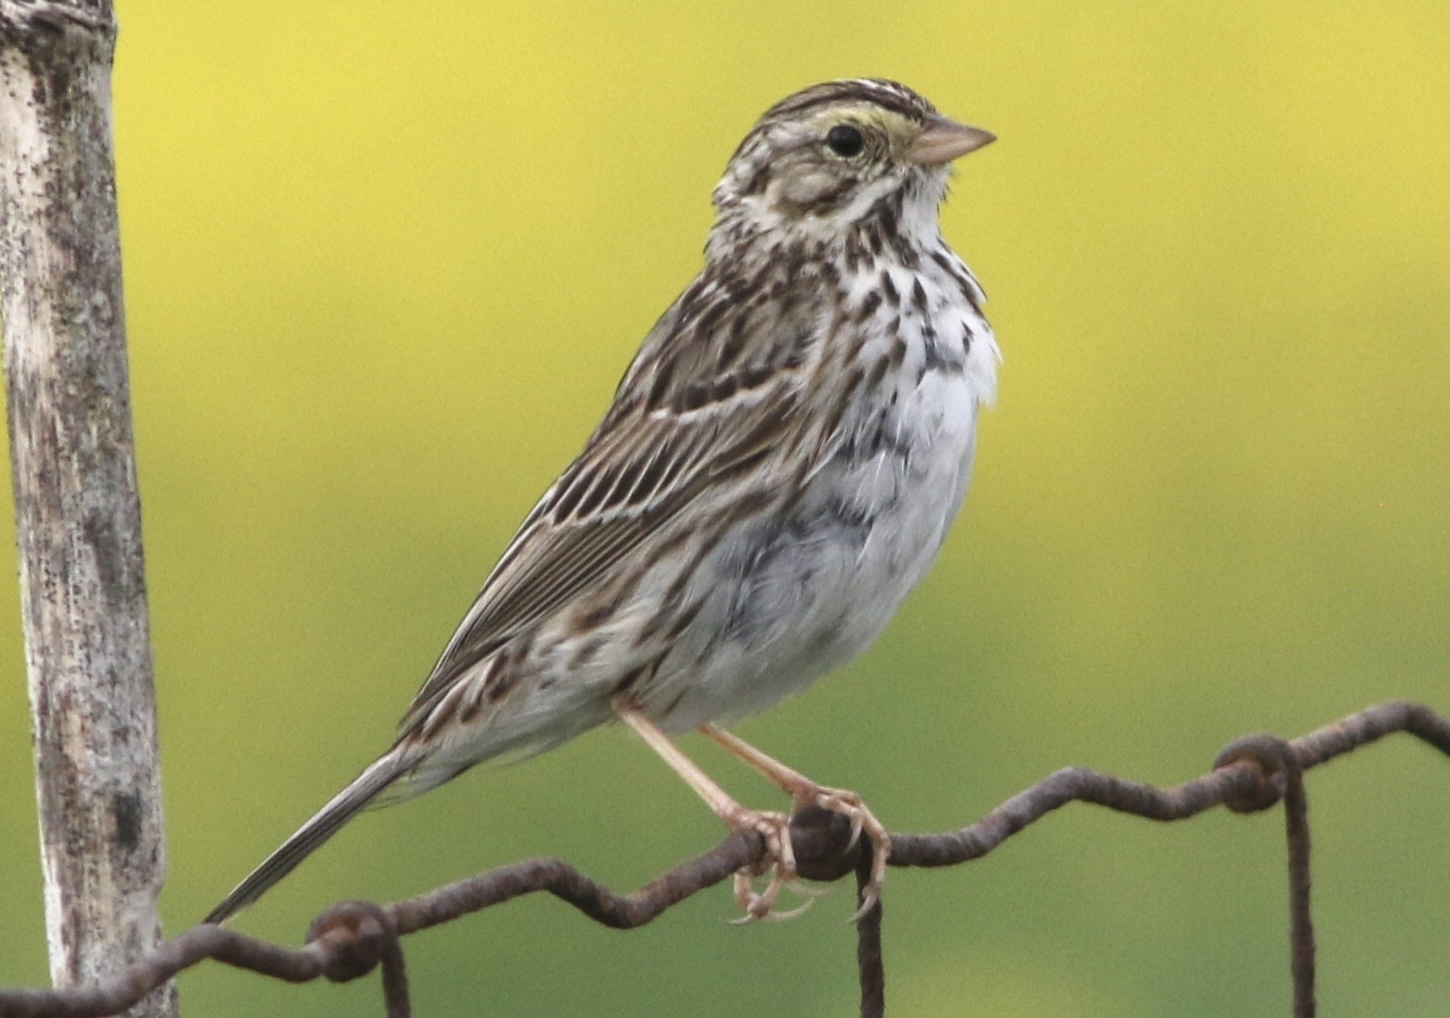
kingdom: Animalia
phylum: Chordata
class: Aves
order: Passeriformes
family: Passerellidae
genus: Passerculus
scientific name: Passerculus sandwichensis
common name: Savannah sparrow
